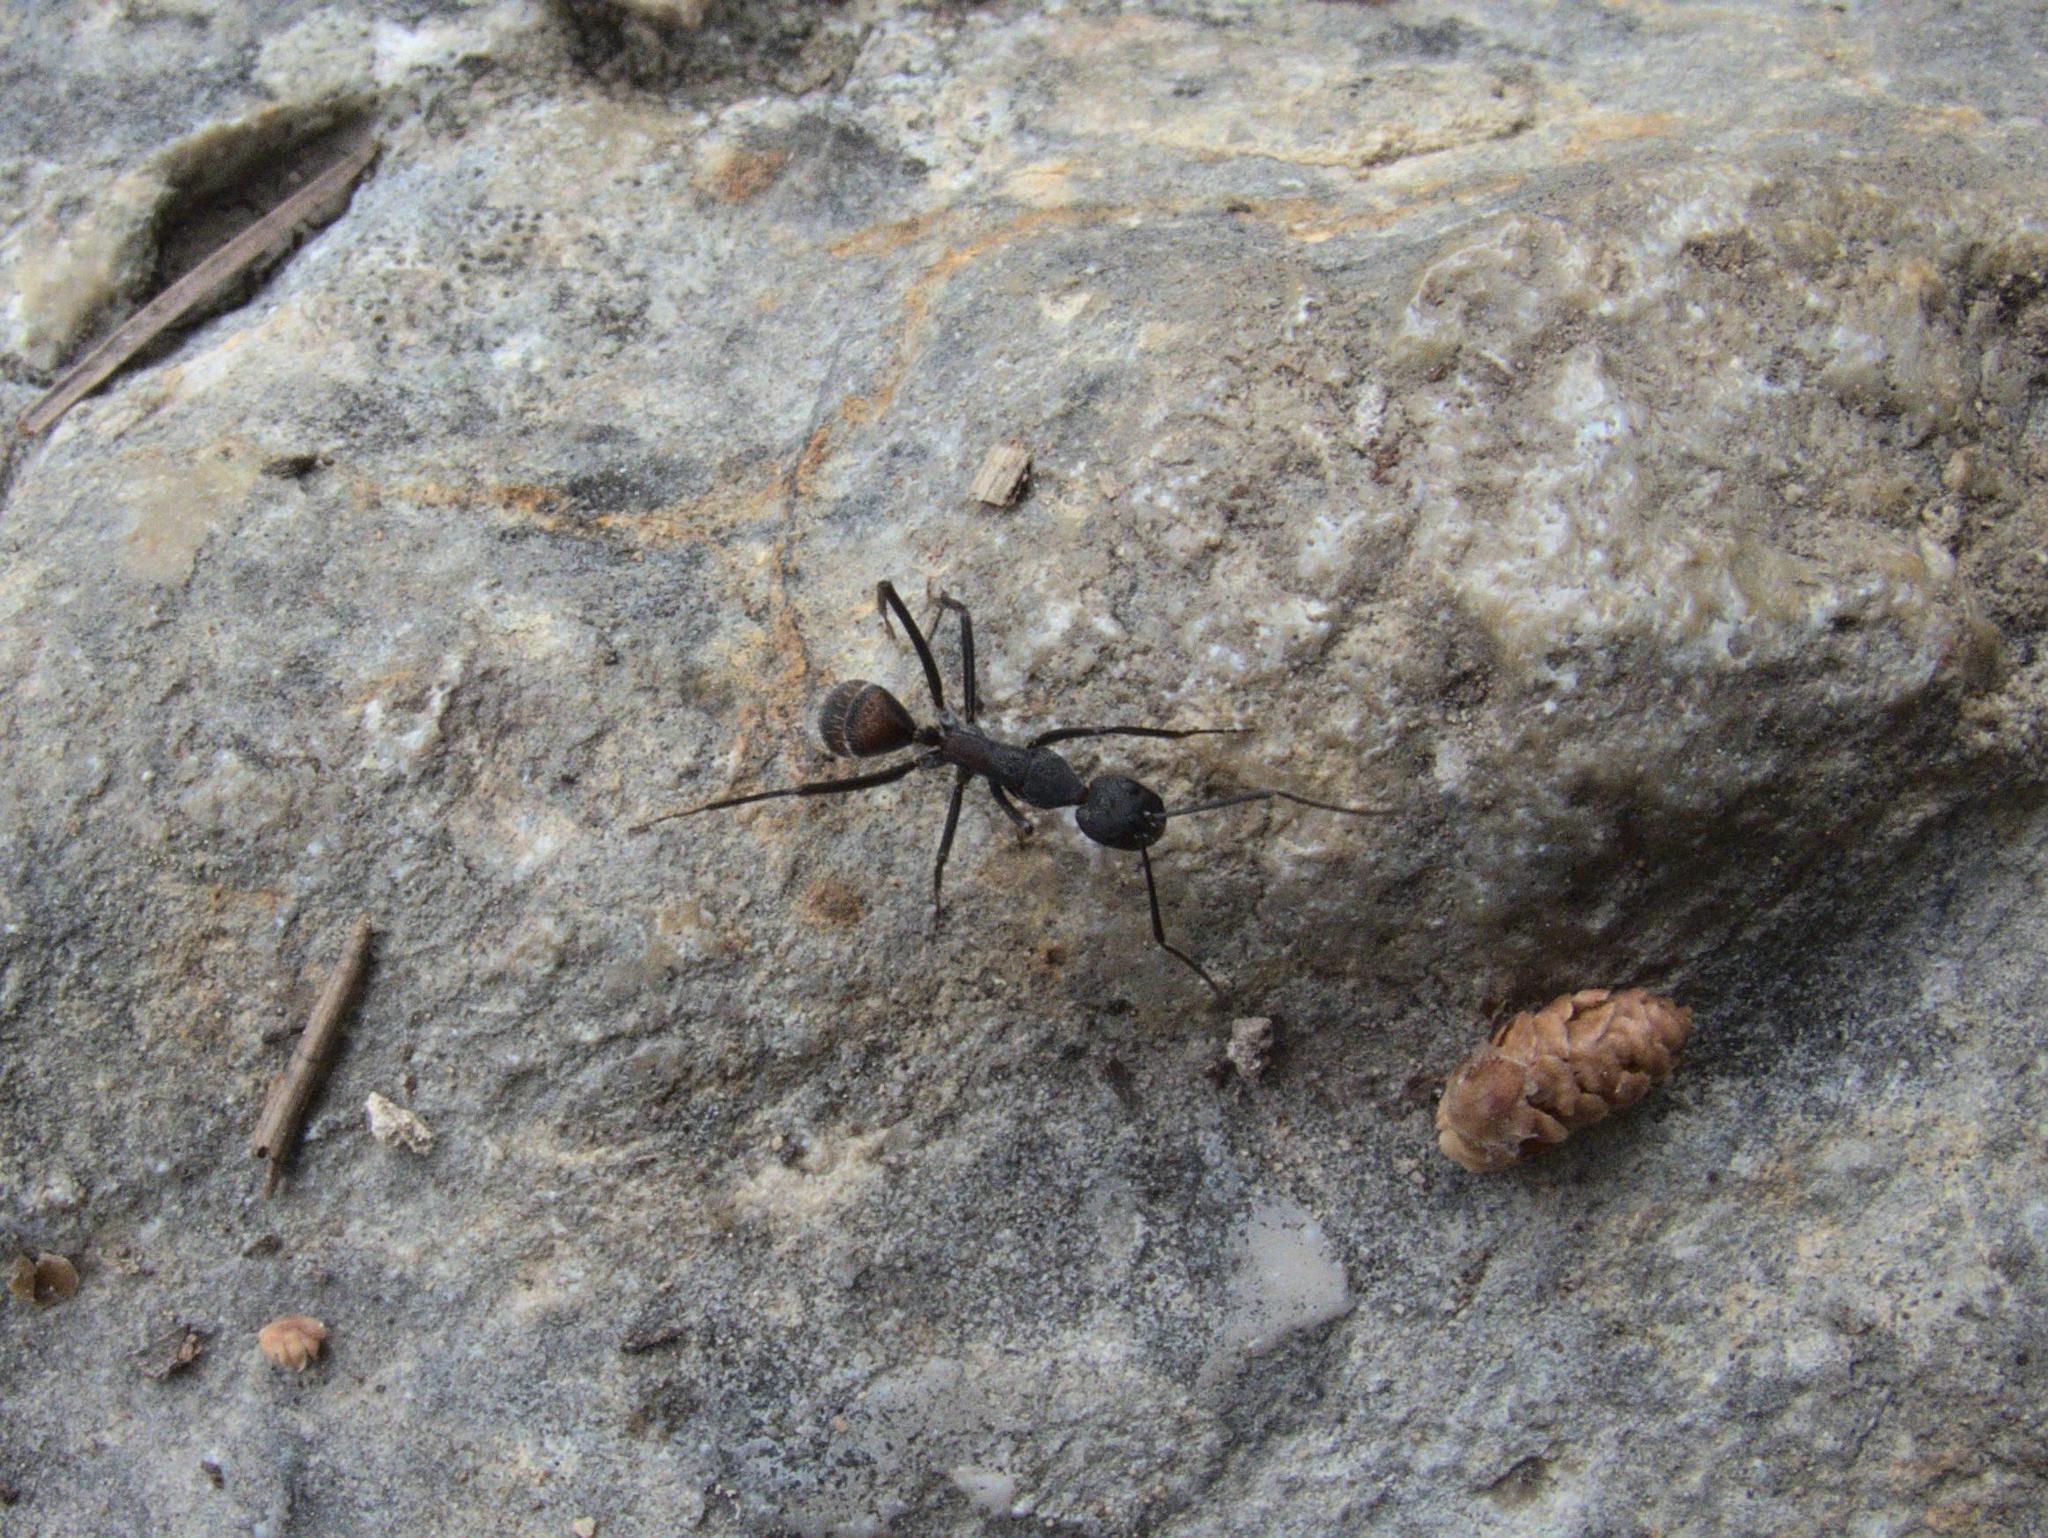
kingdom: Animalia
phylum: Arthropoda
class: Insecta
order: Hymenoptera
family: Formicidae
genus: Camponotus
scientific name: Camponotus cruentatus
